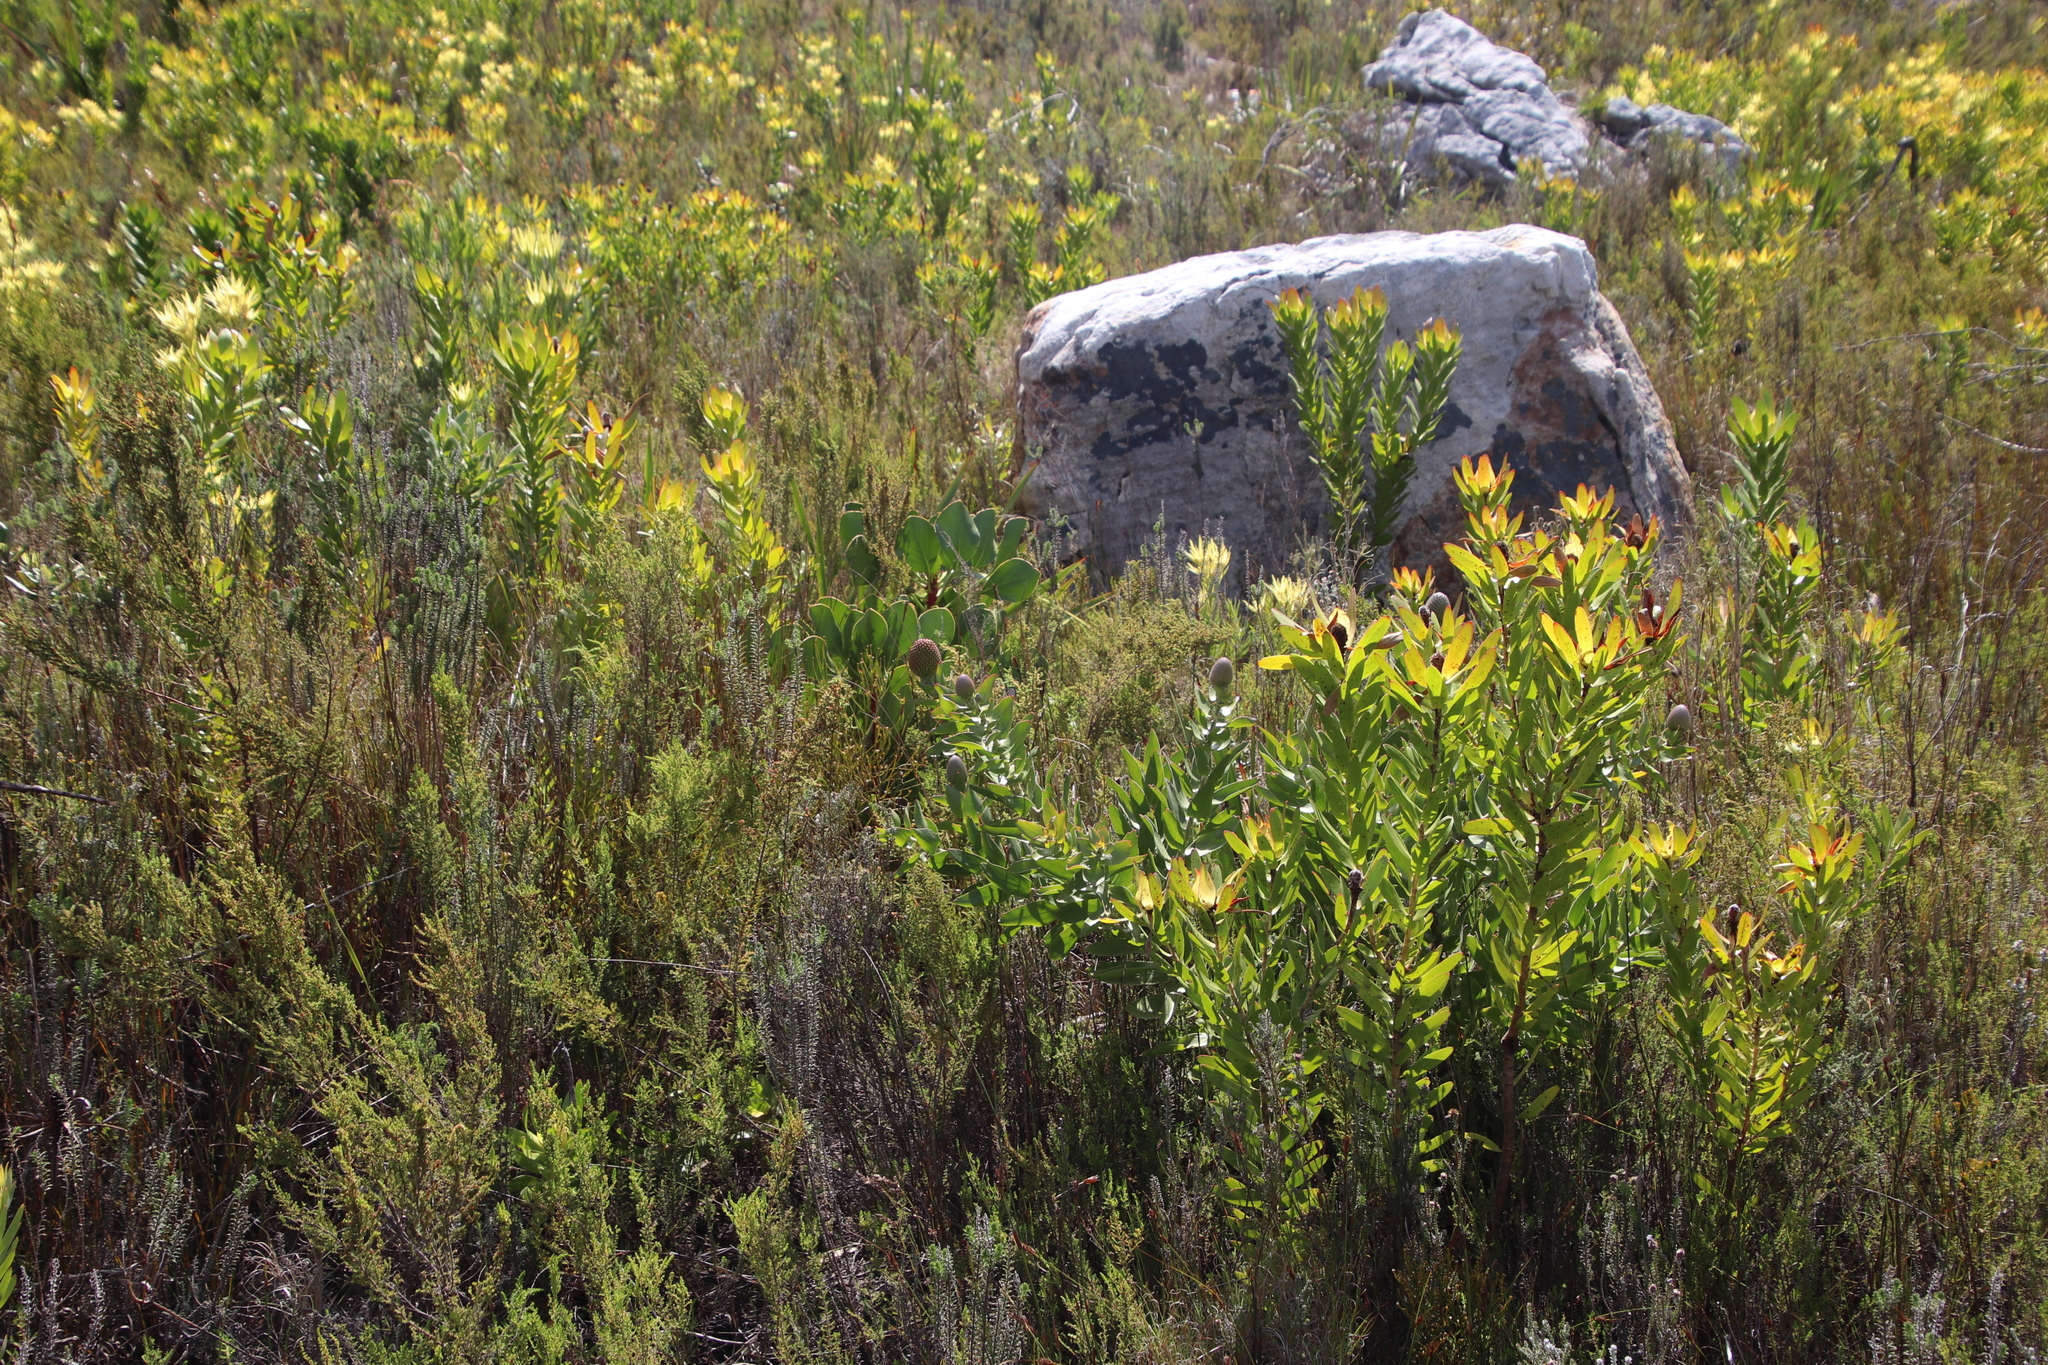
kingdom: Plantae
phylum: Tracheophyta
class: Magnoliopsida
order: Proteales
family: Proteaceae
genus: Leucospermum
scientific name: Leucospermum cordifolium
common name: Red pincushion-protea
